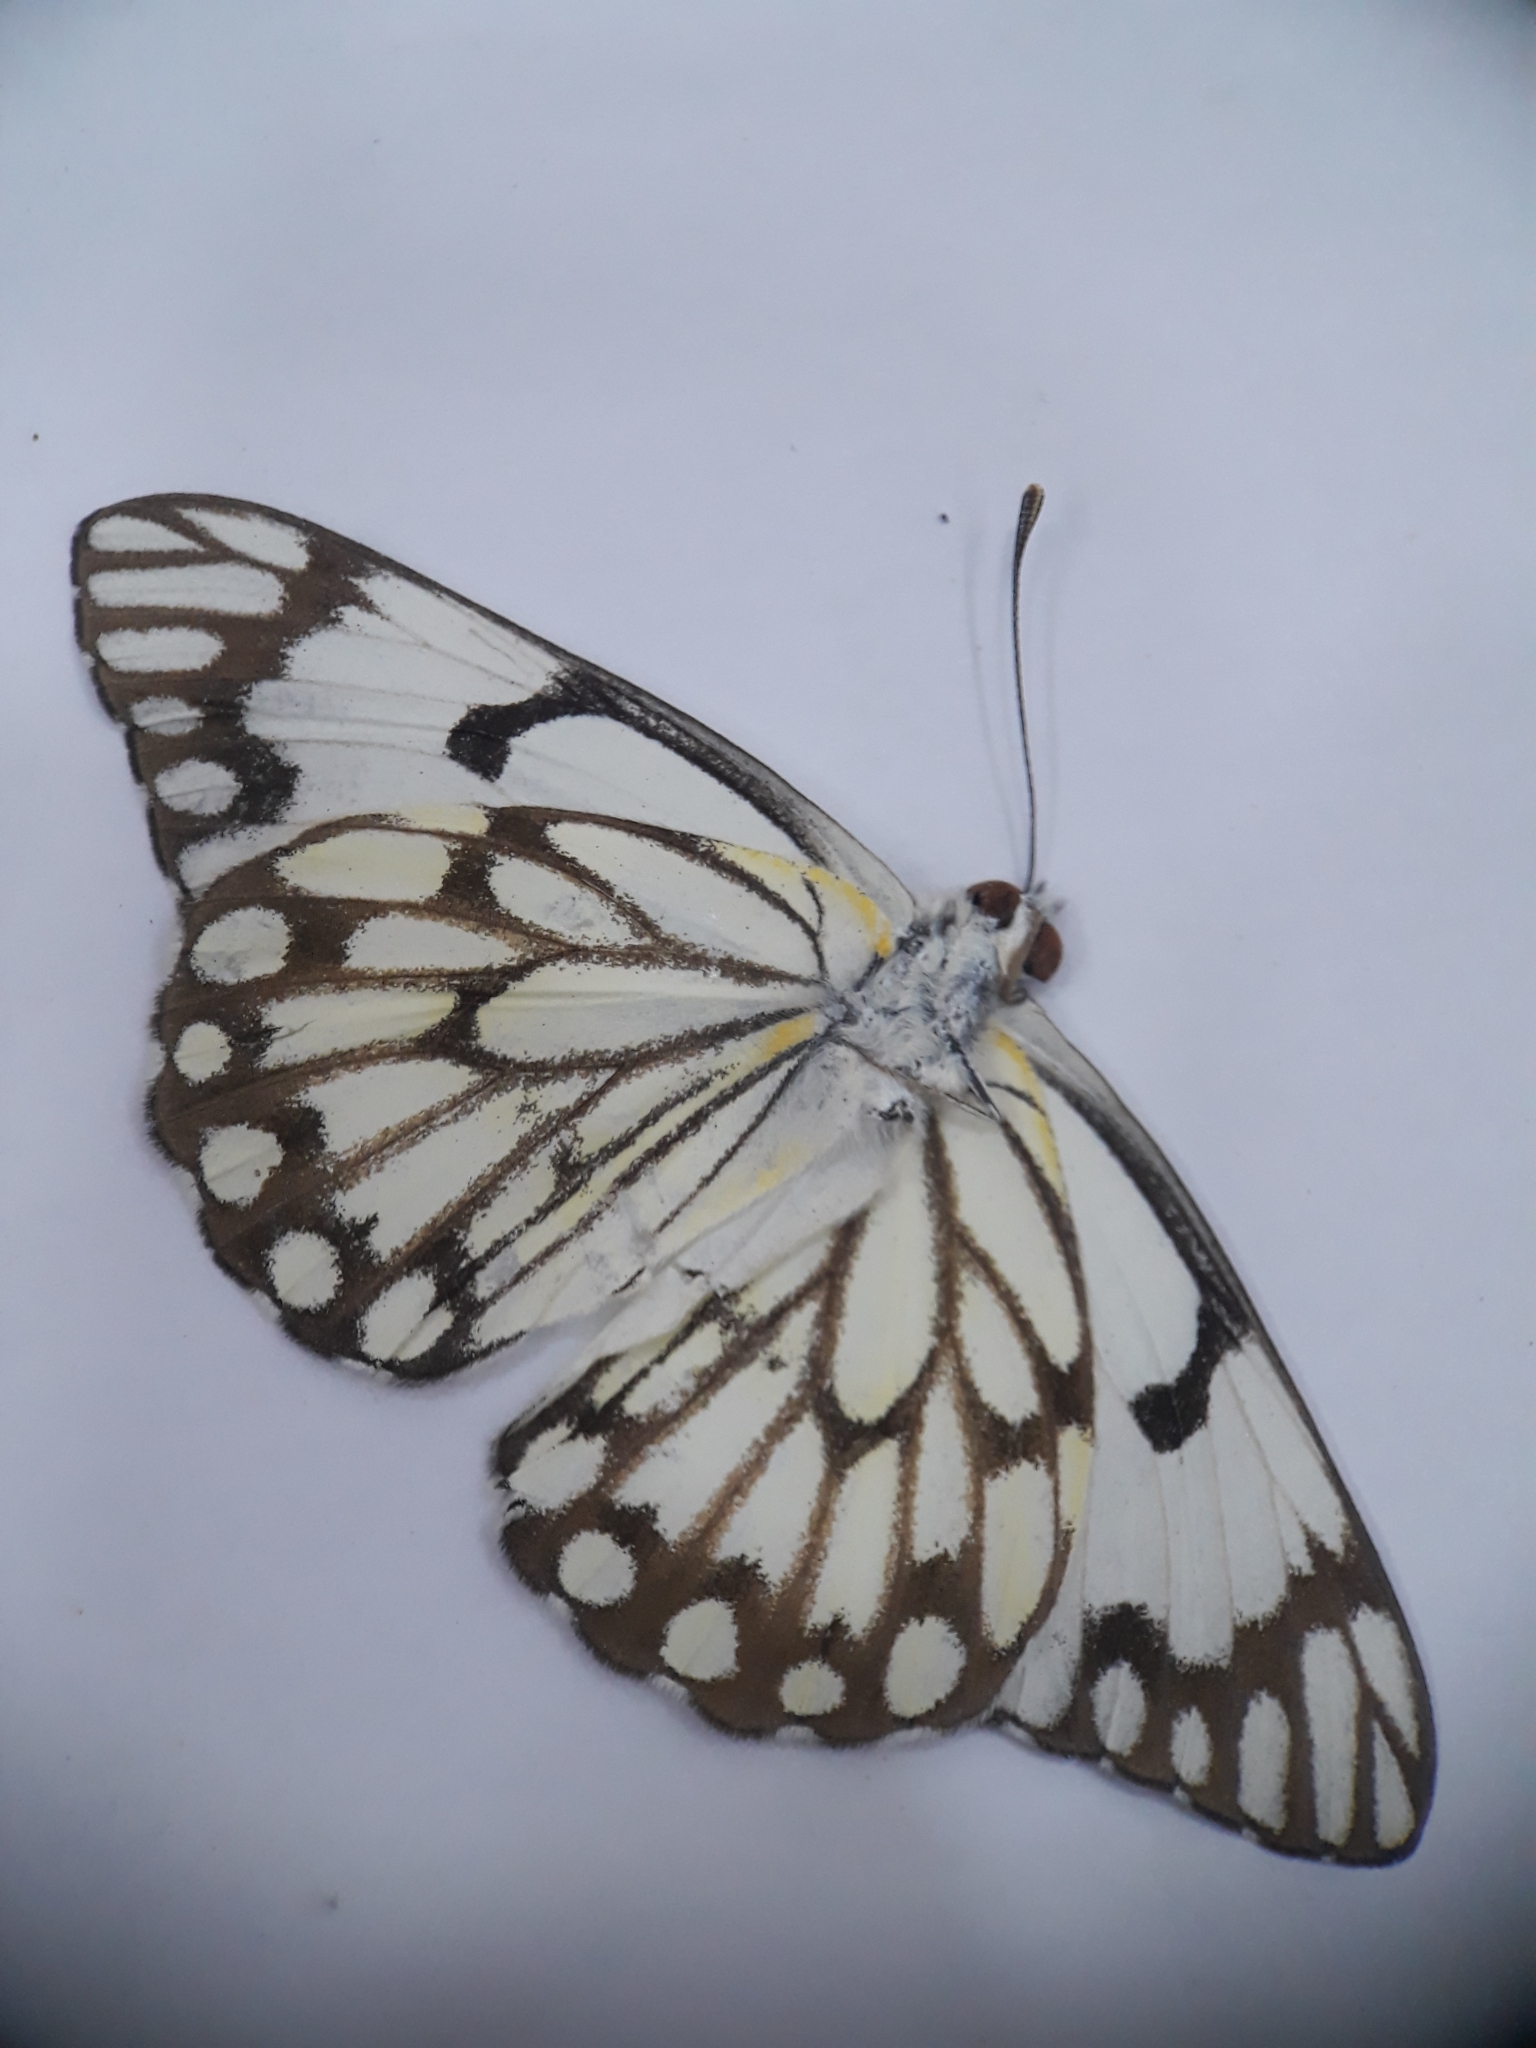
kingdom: Animalia
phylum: Arthropoda
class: Insecta
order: Lepidoptera
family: Pieridae
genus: Belenois
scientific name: Belenois aurota
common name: Brown-veined white
